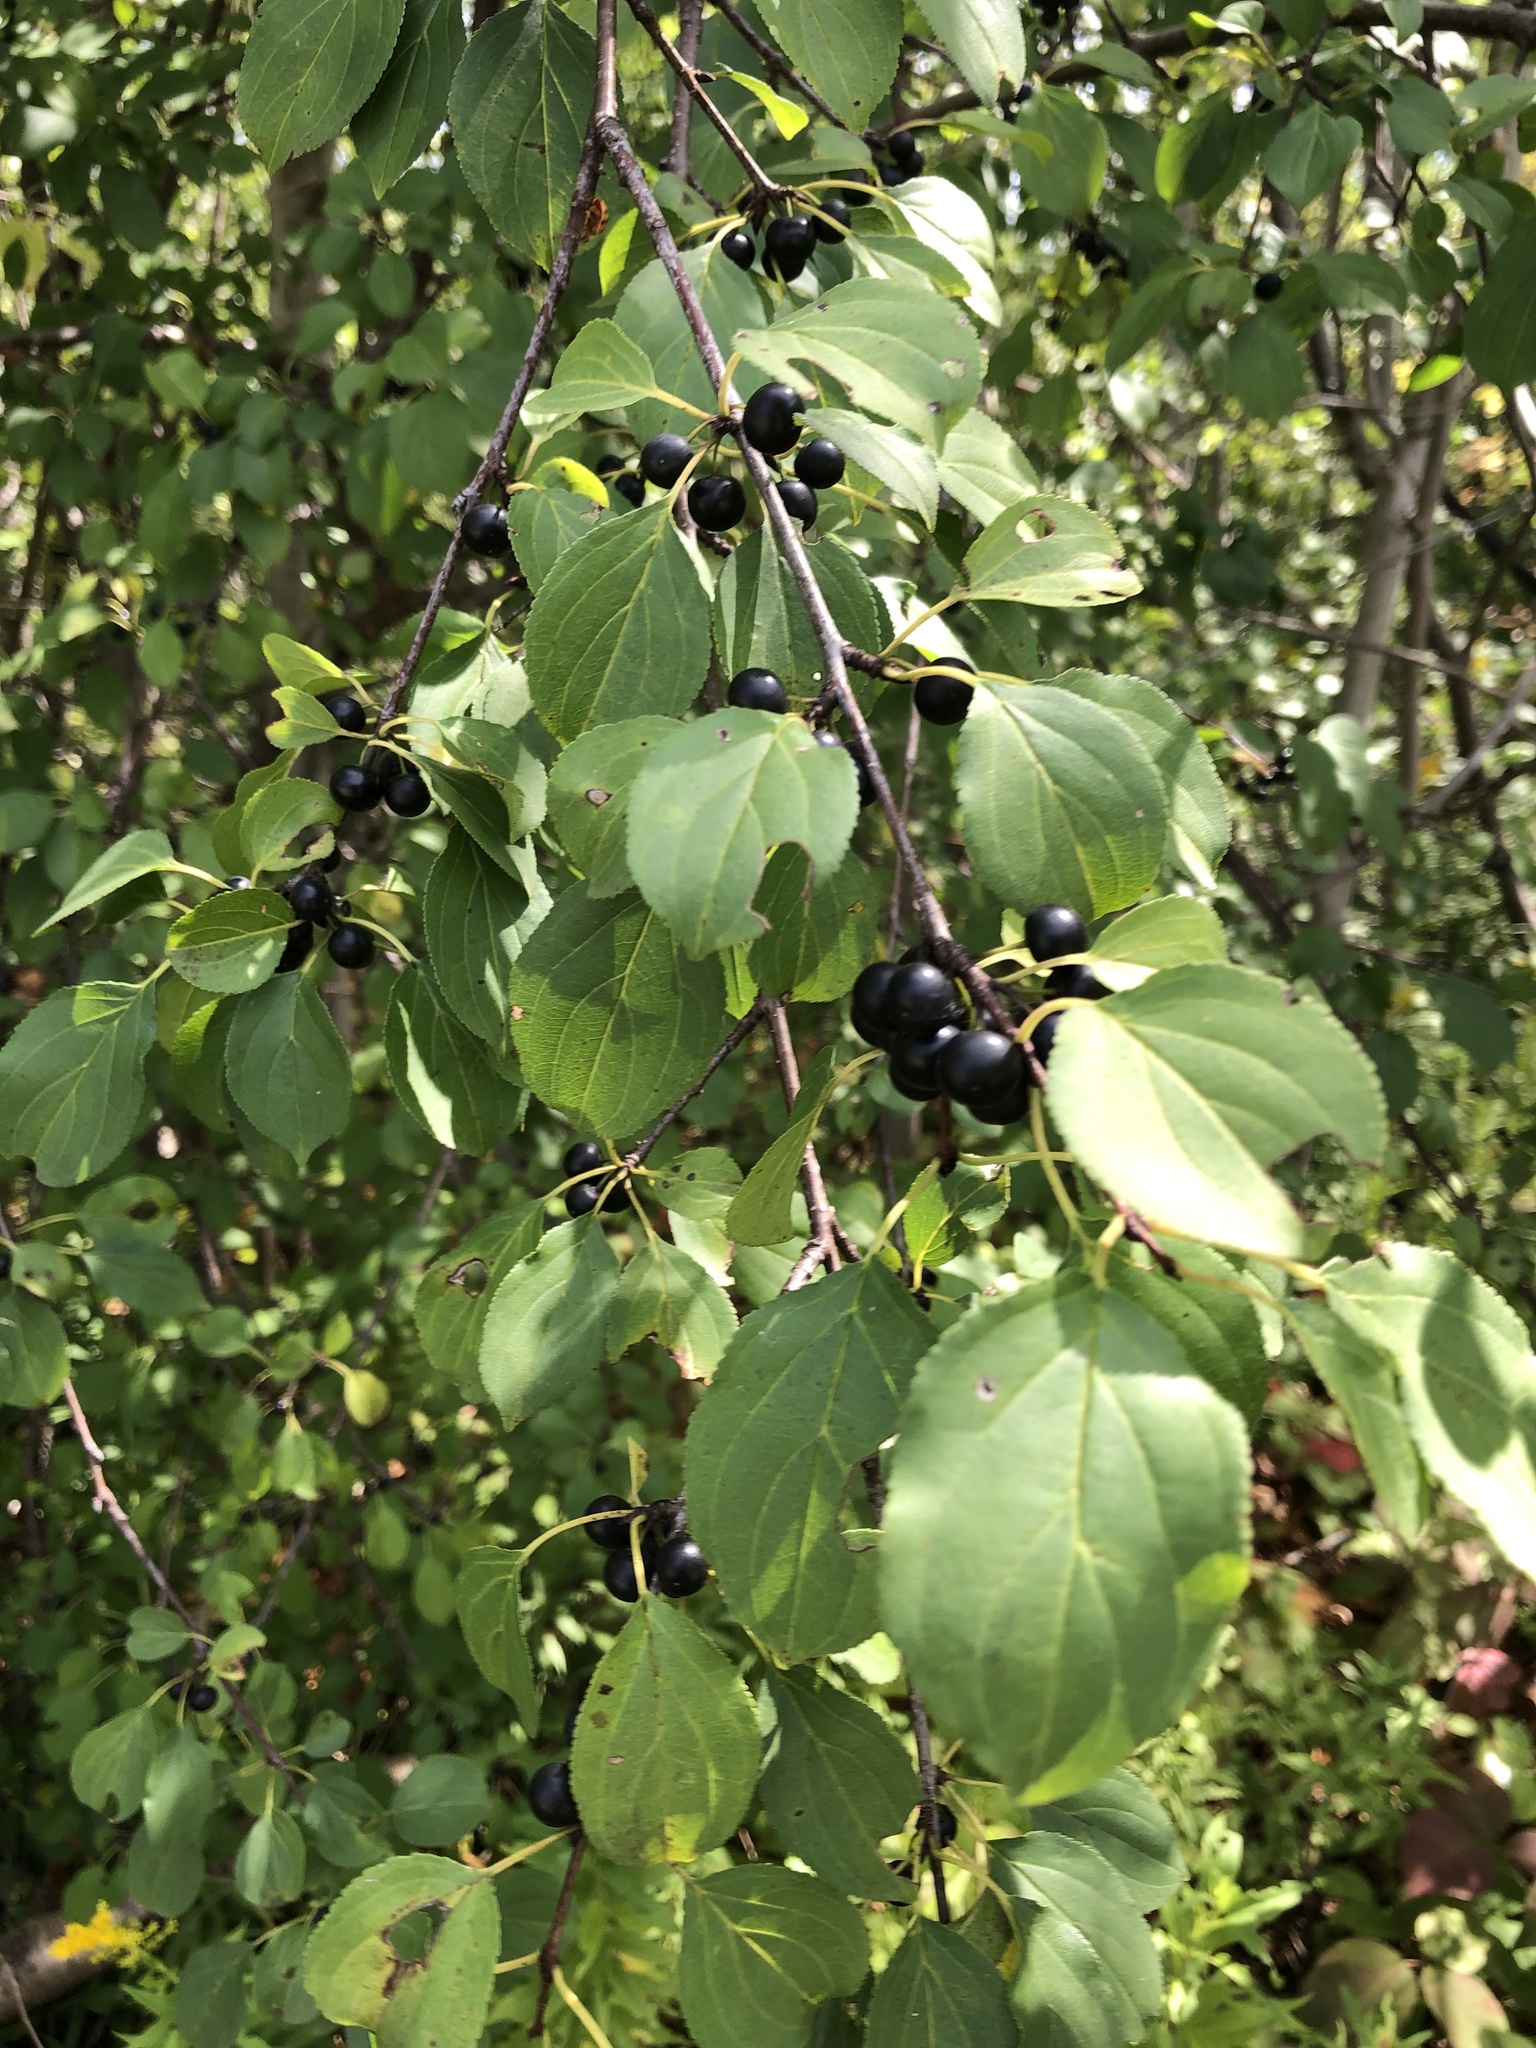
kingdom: Plantae
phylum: Tracheophyta
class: Magnoliopsida
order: Rosales
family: Rhamnaceae
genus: Rhamnus
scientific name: Rhamnus cathartica
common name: Common buckthorn
